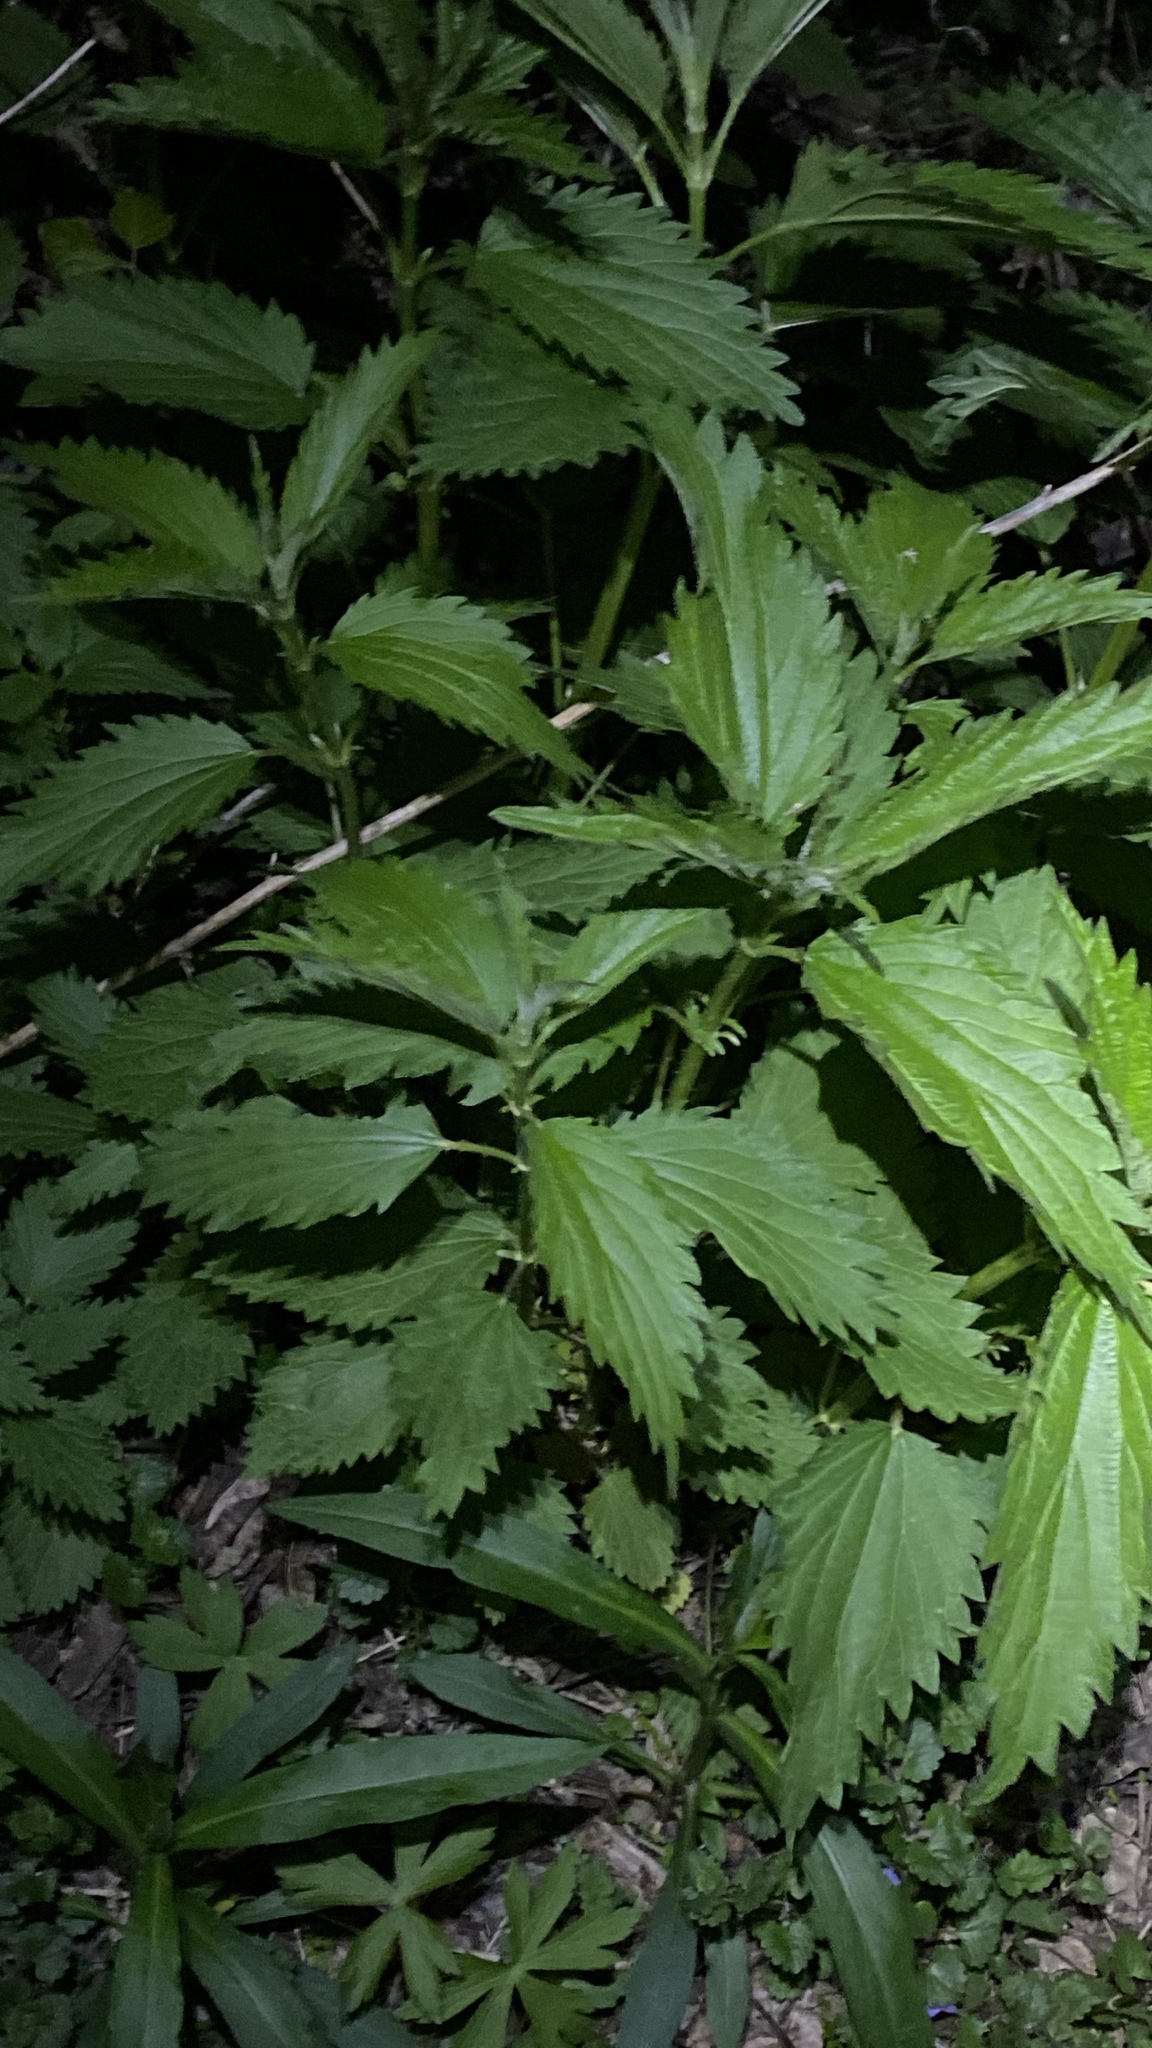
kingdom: Plantae
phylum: Tracheophyta
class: Magnoliopsida
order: Rosales
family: Urticaceae
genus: Urtica
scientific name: Urtica dioica
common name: Common nettle
